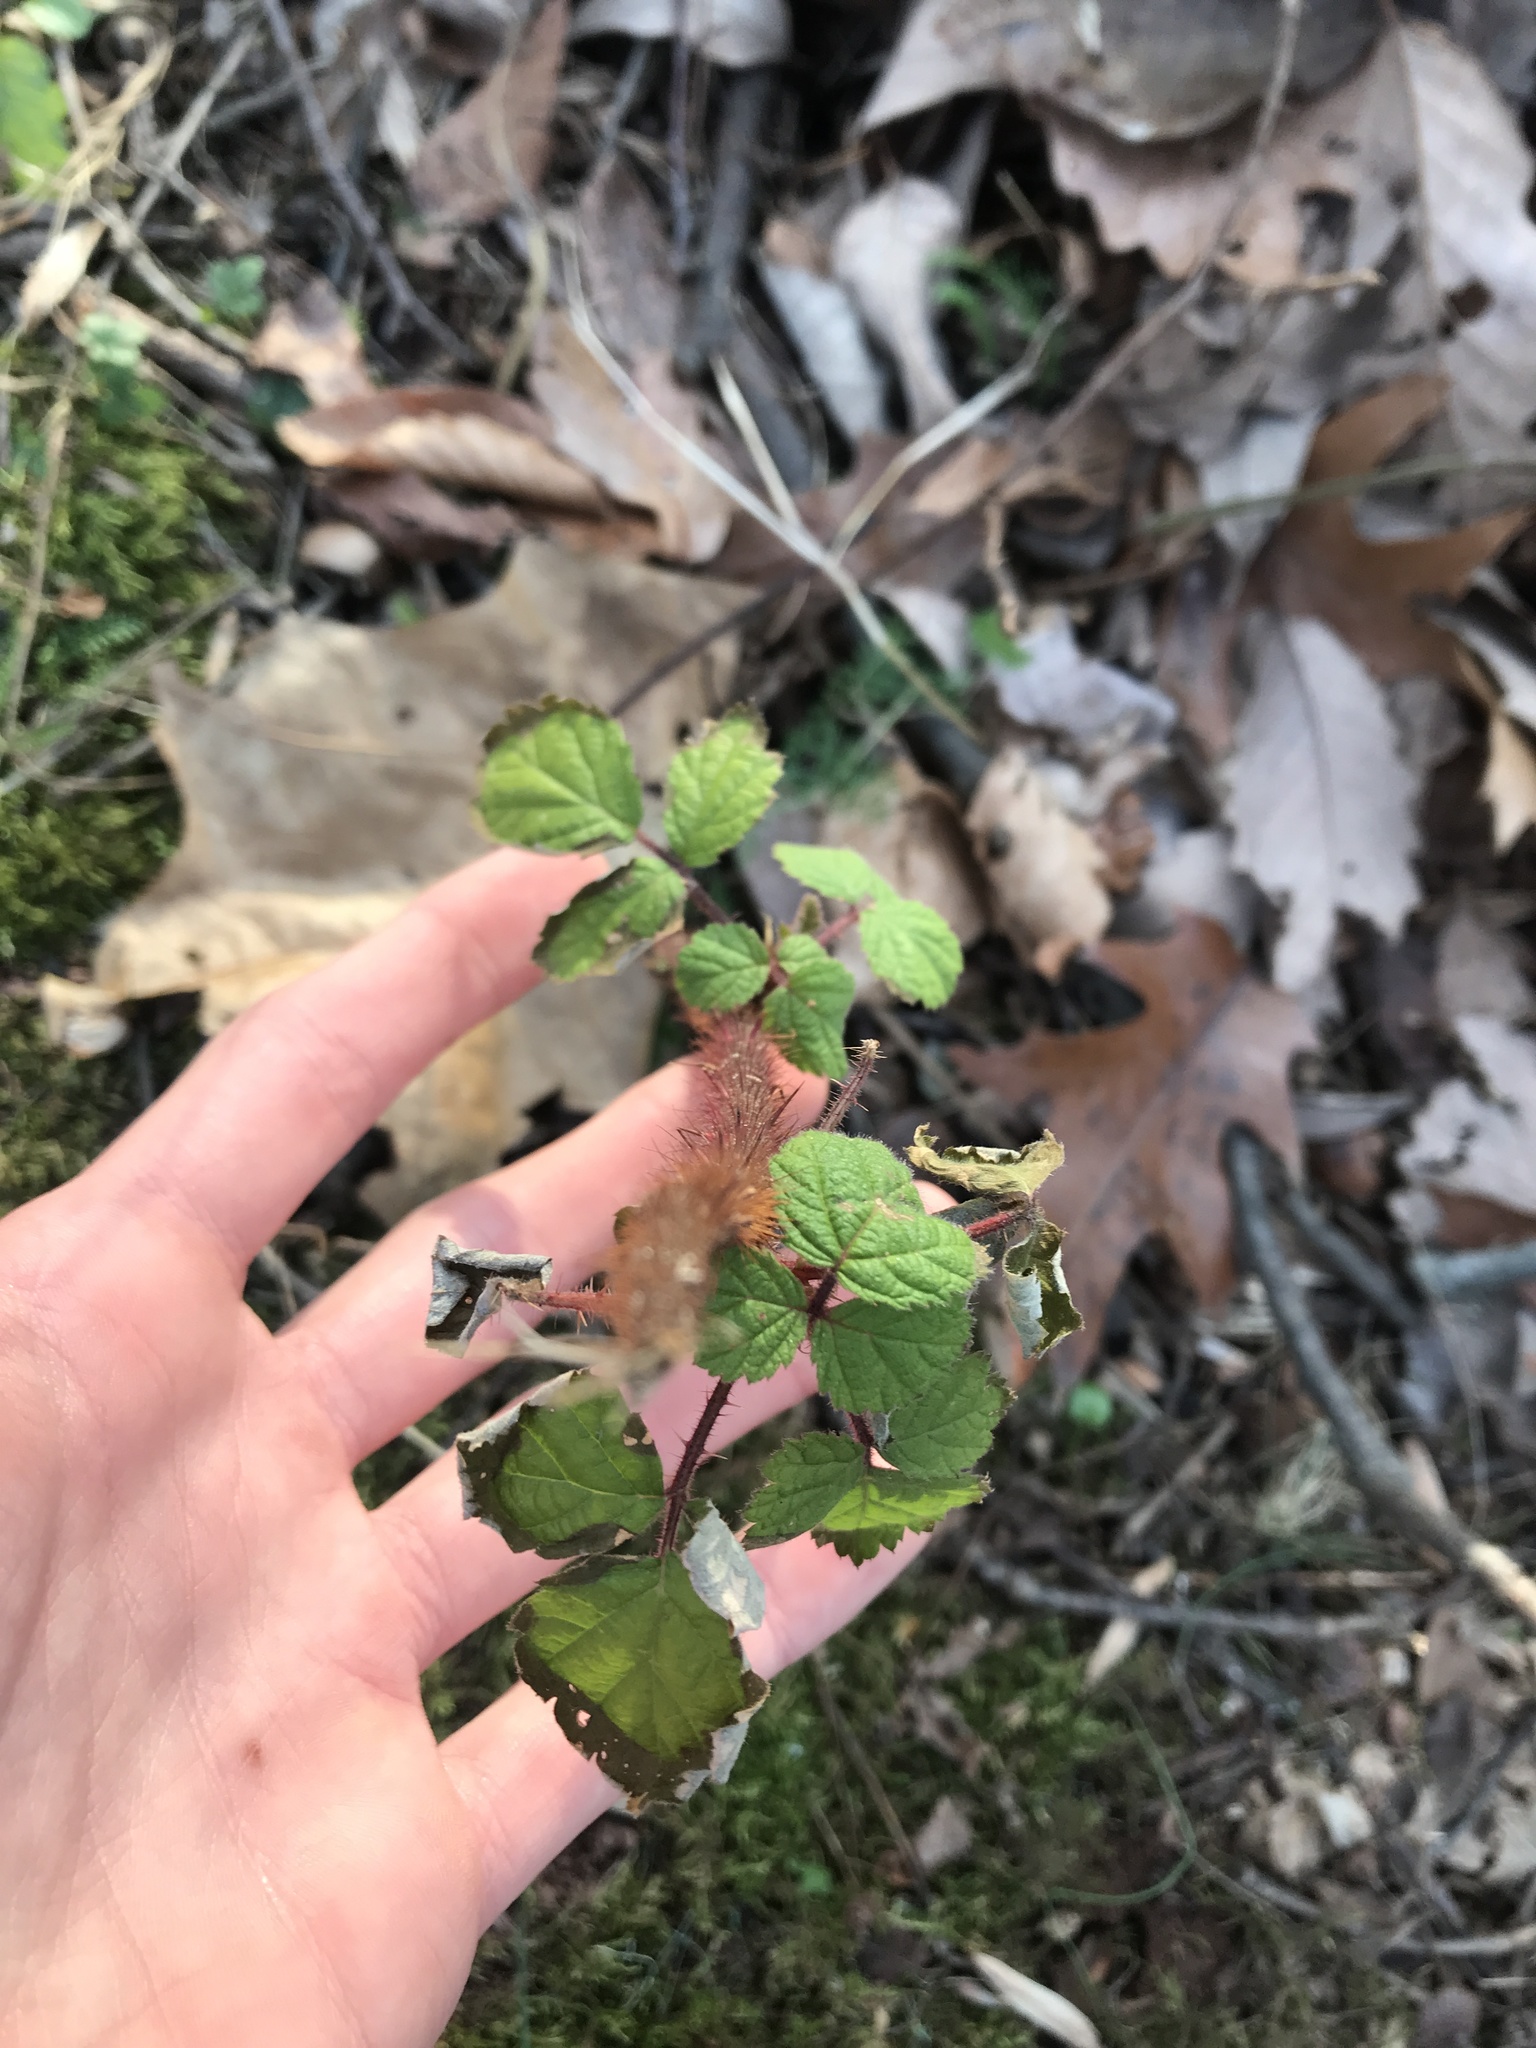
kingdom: Plantae
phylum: Tracheophyta
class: Magnoliopsida
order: Rosales
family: Rosaceae
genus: Rubus
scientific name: Rubus phoenicolasius
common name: Japanese wineberry
